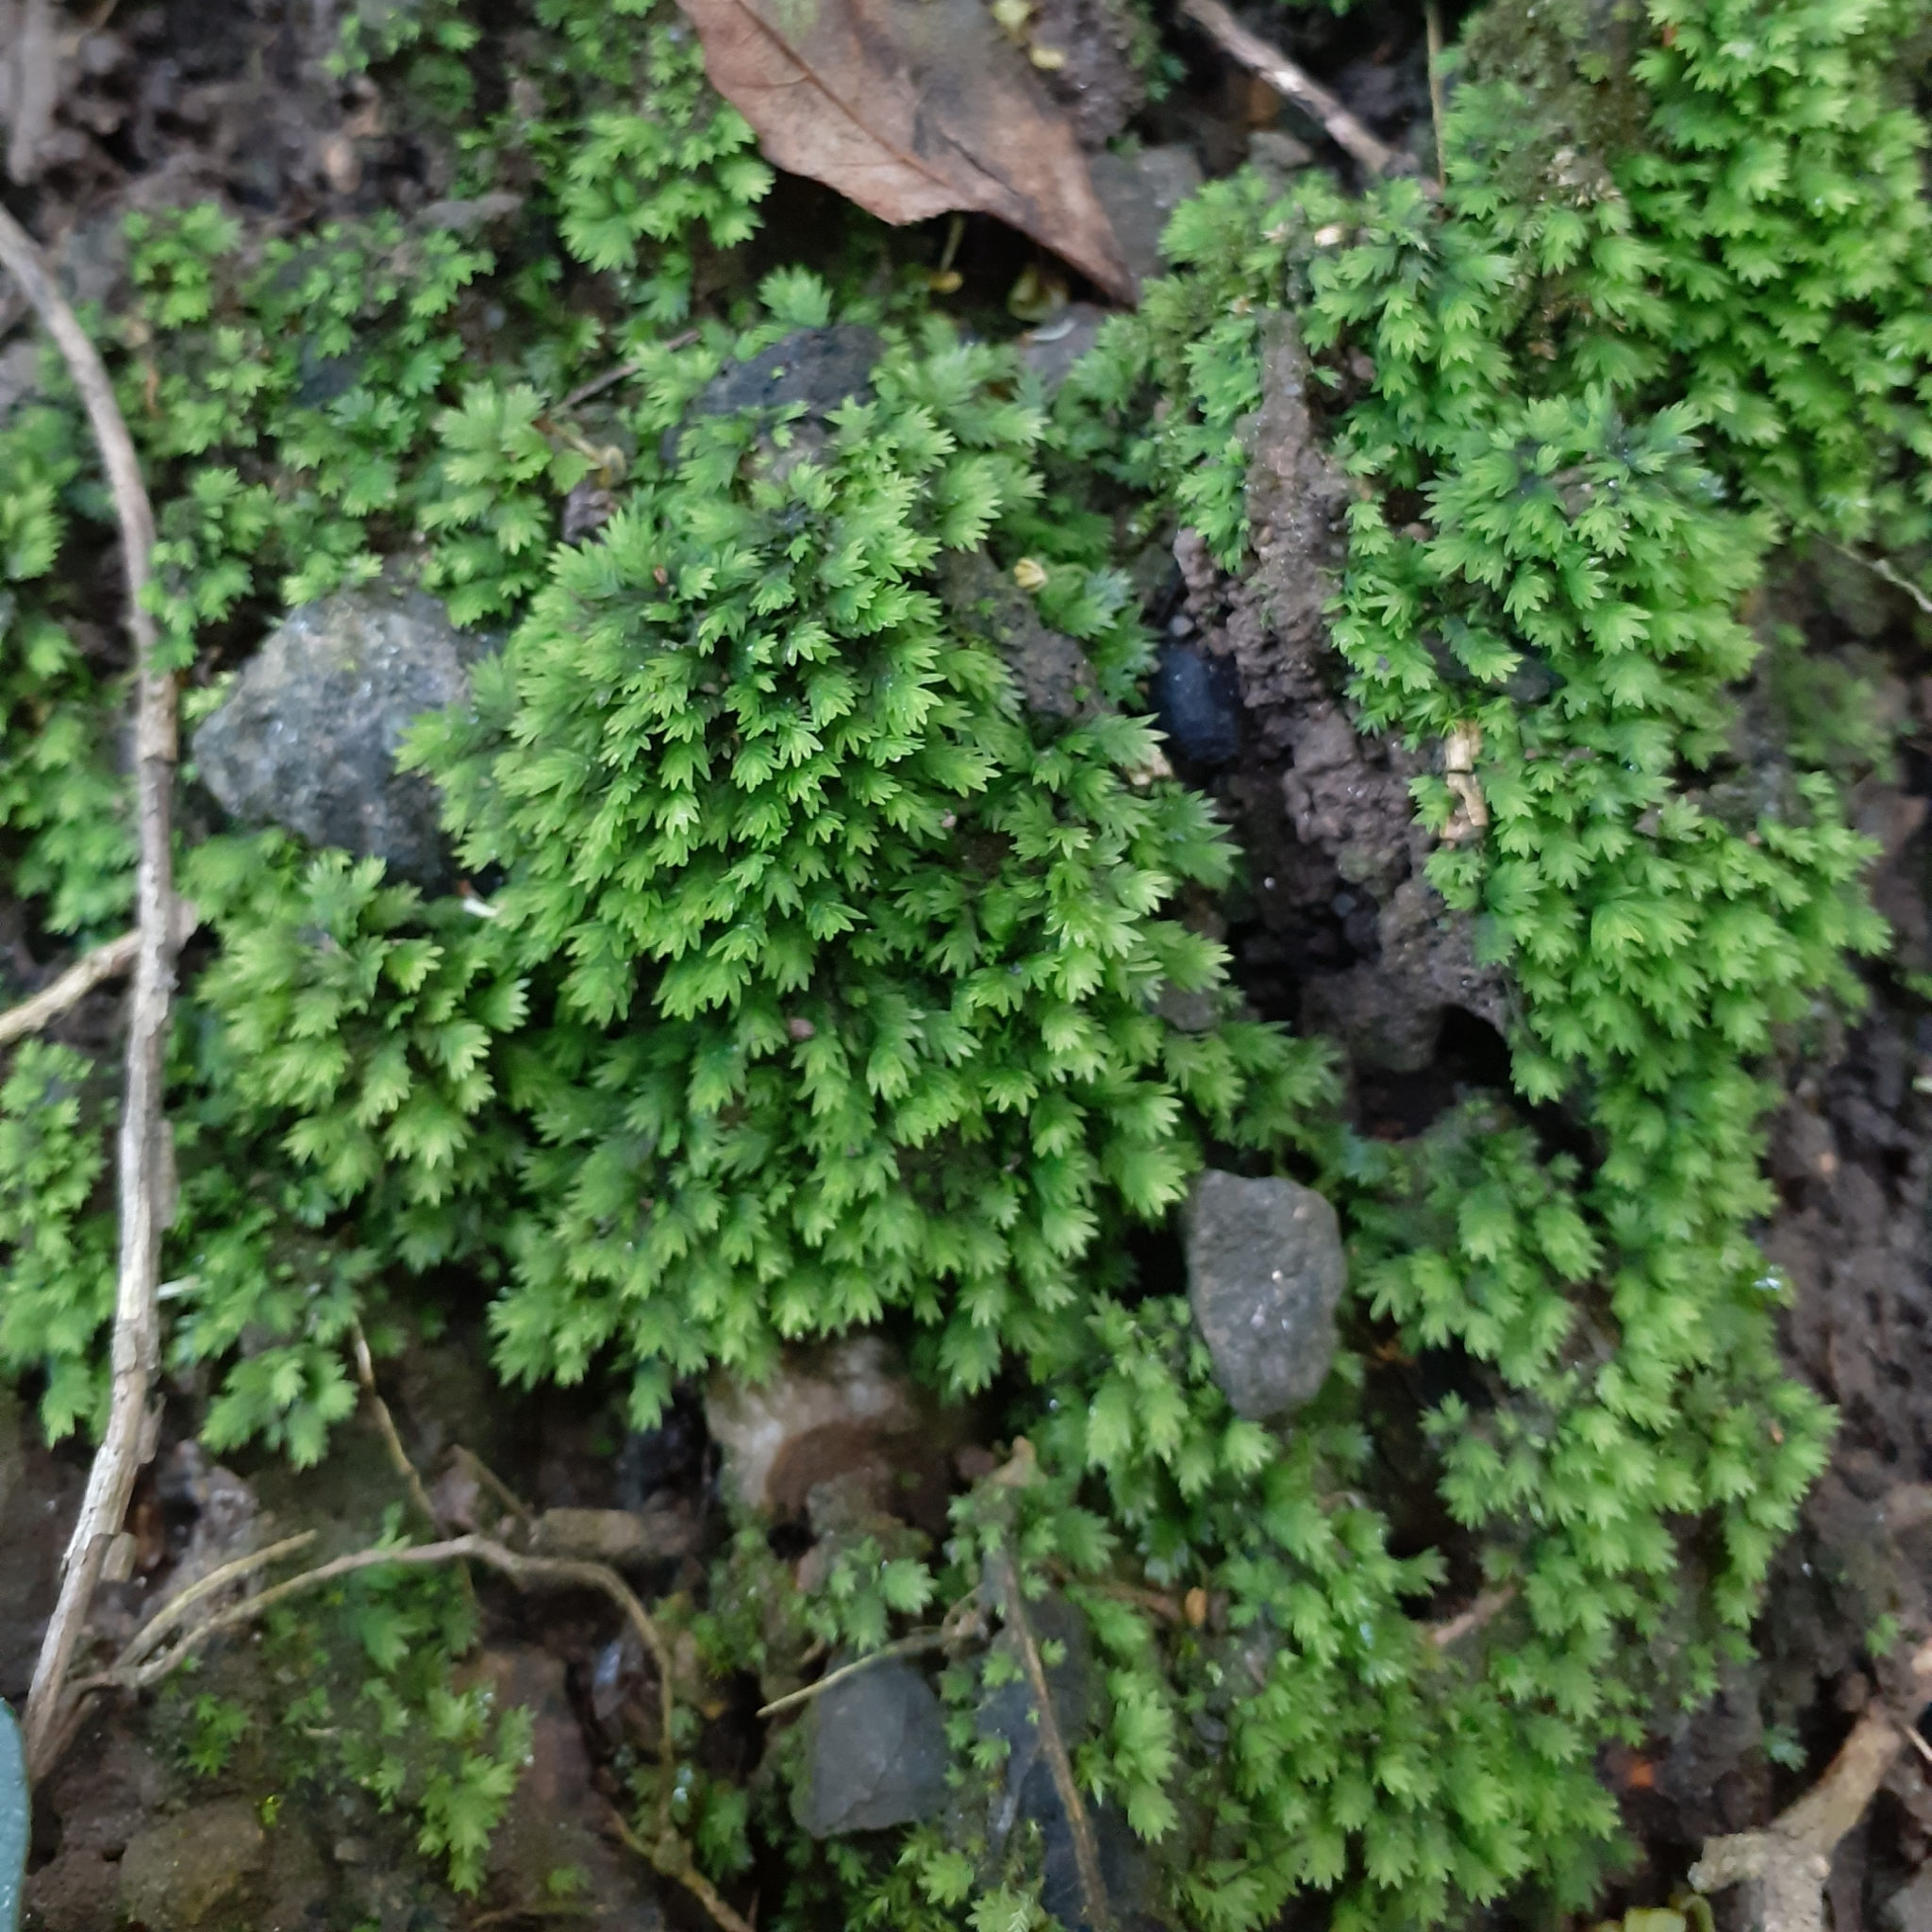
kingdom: Plantae
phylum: Bryophyta
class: Bryopsida
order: Dicranales
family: Fissidentaceae
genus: Fissidens
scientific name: Fissidens
